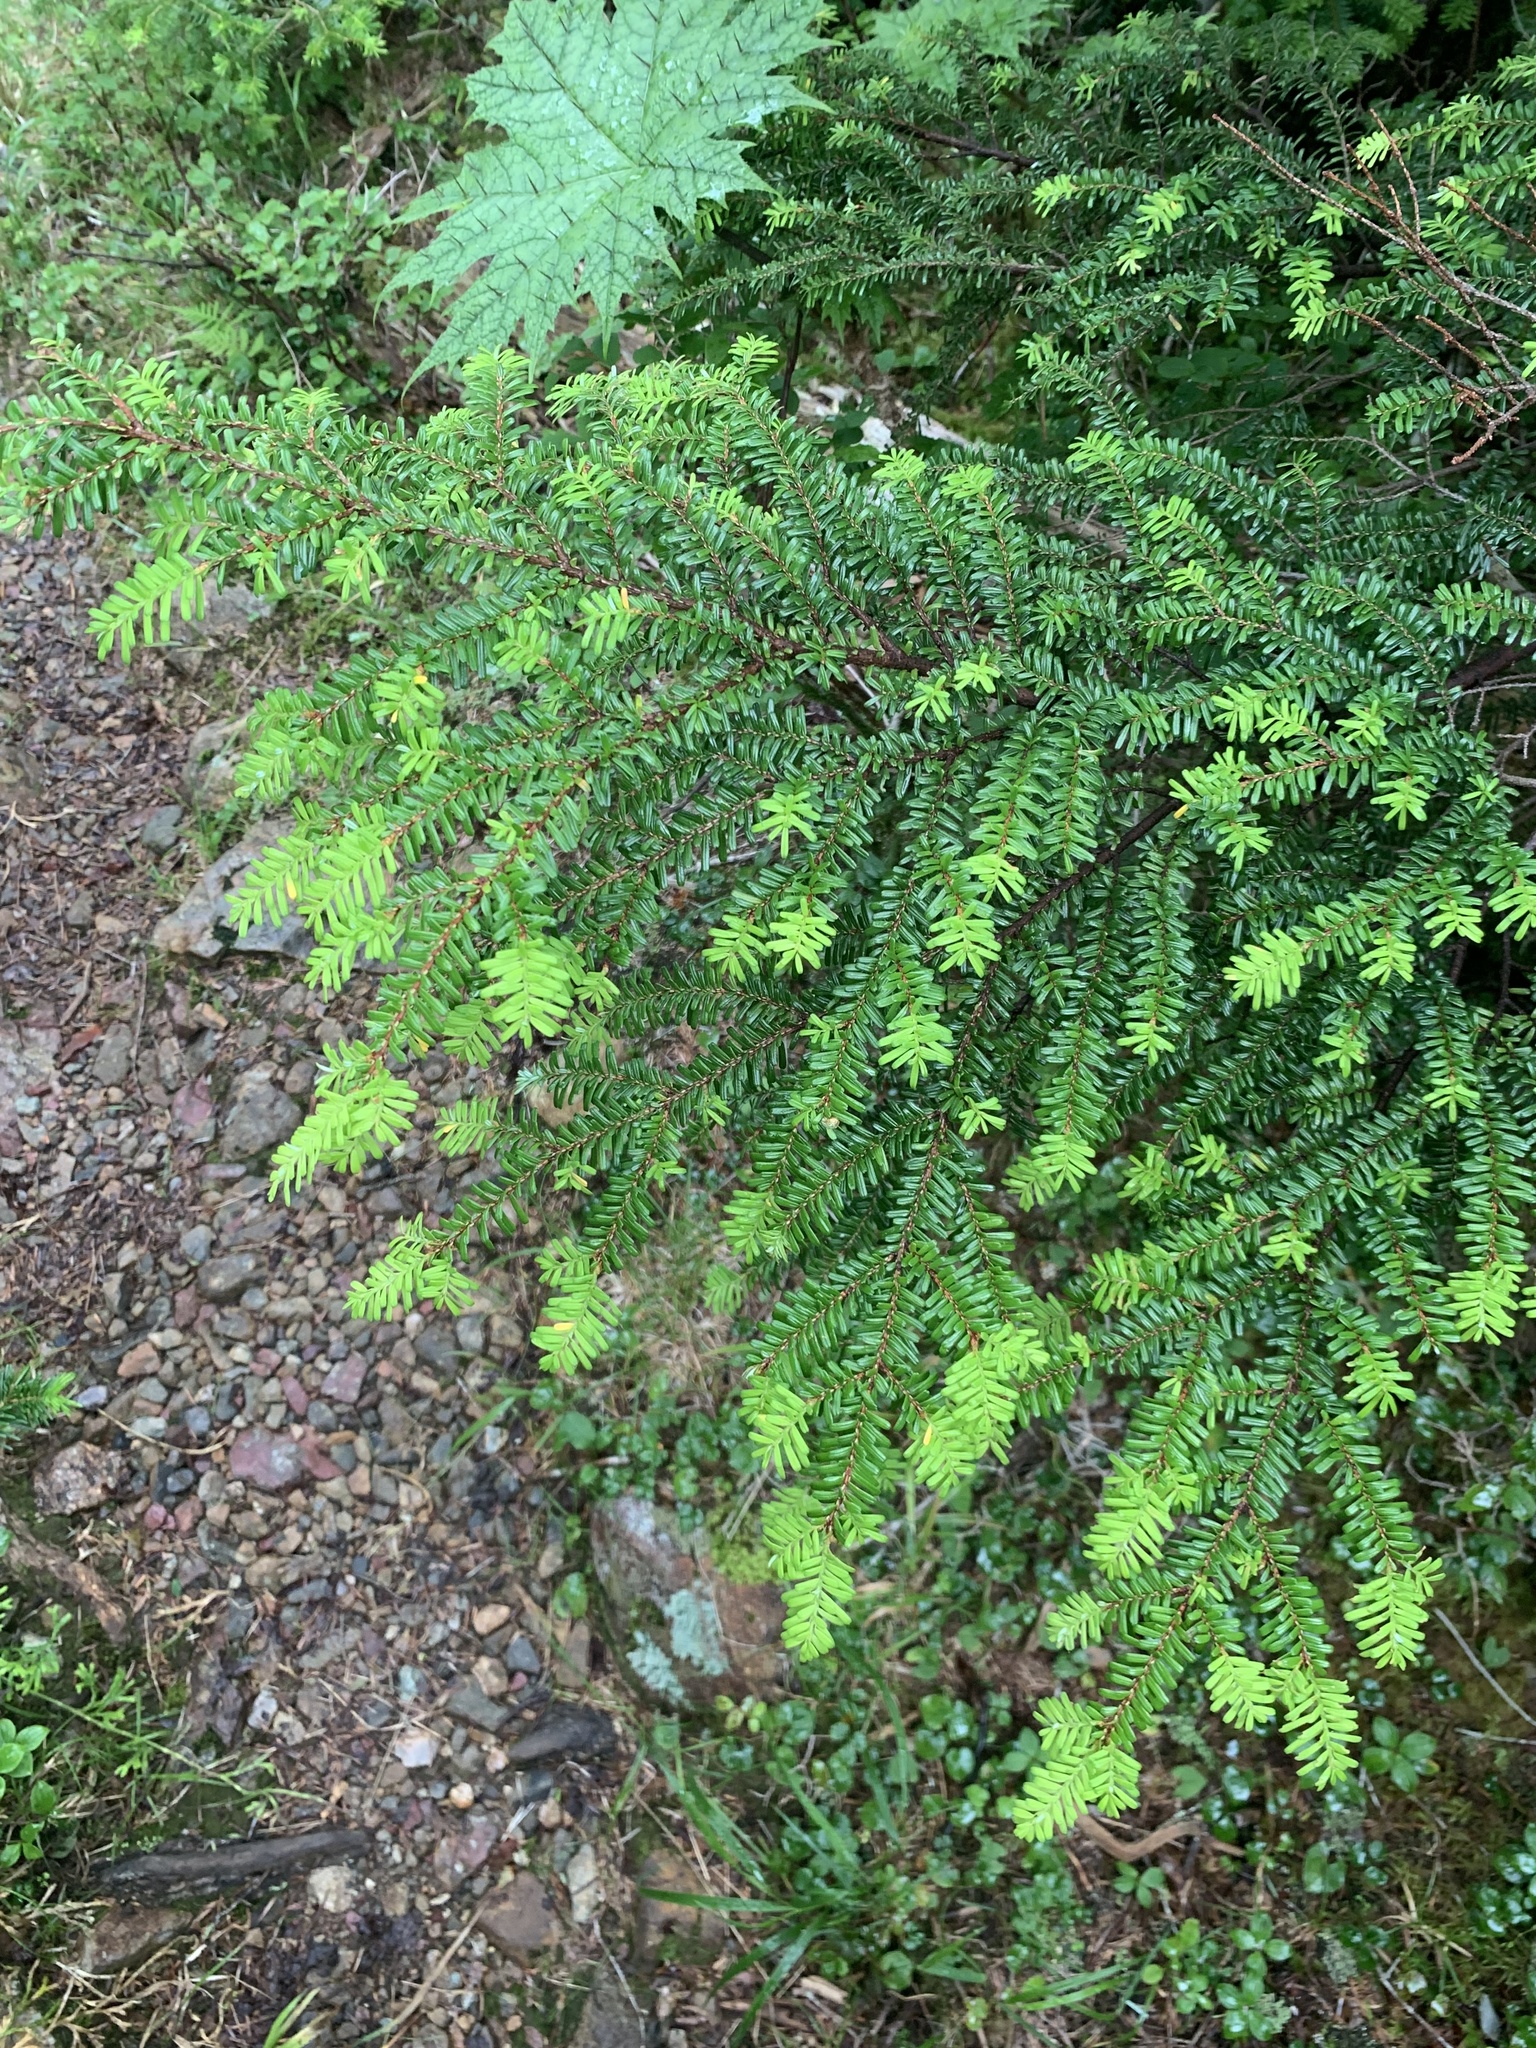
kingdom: Plantae
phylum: Tracheophyta
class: Pinopsida
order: Pinales
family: Pinaceae
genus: Tsuga
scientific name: Tsuga diversifolia
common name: Northern japanese hemlock
